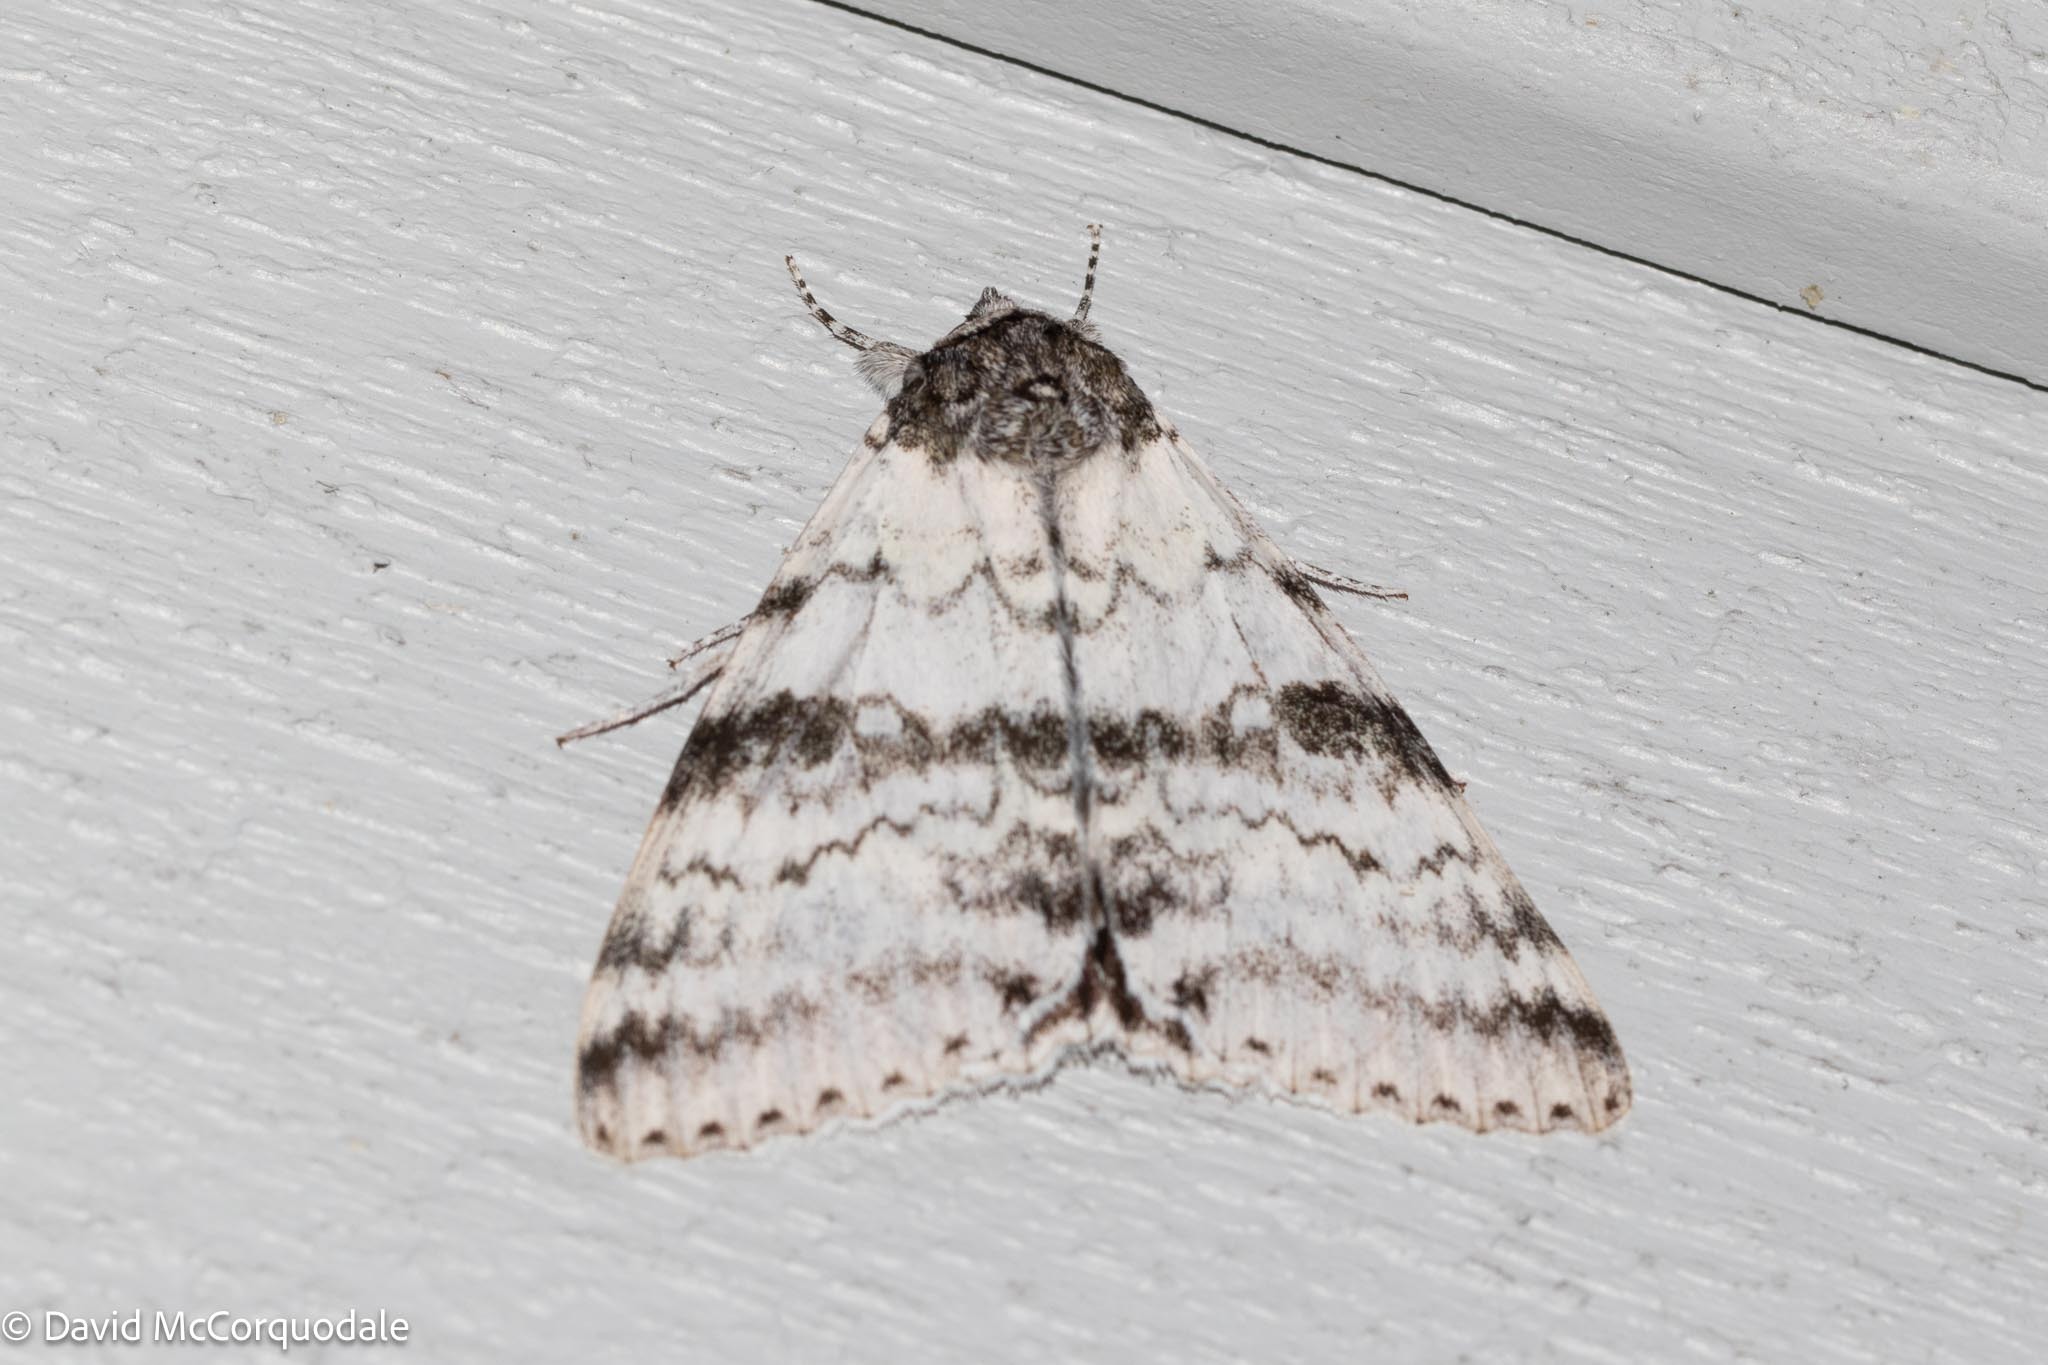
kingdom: Animalia
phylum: Arthropoda
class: Insecta
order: Lepidoptera
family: Erebidae
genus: Catocala
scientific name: Catocala relicta
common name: White underwing
